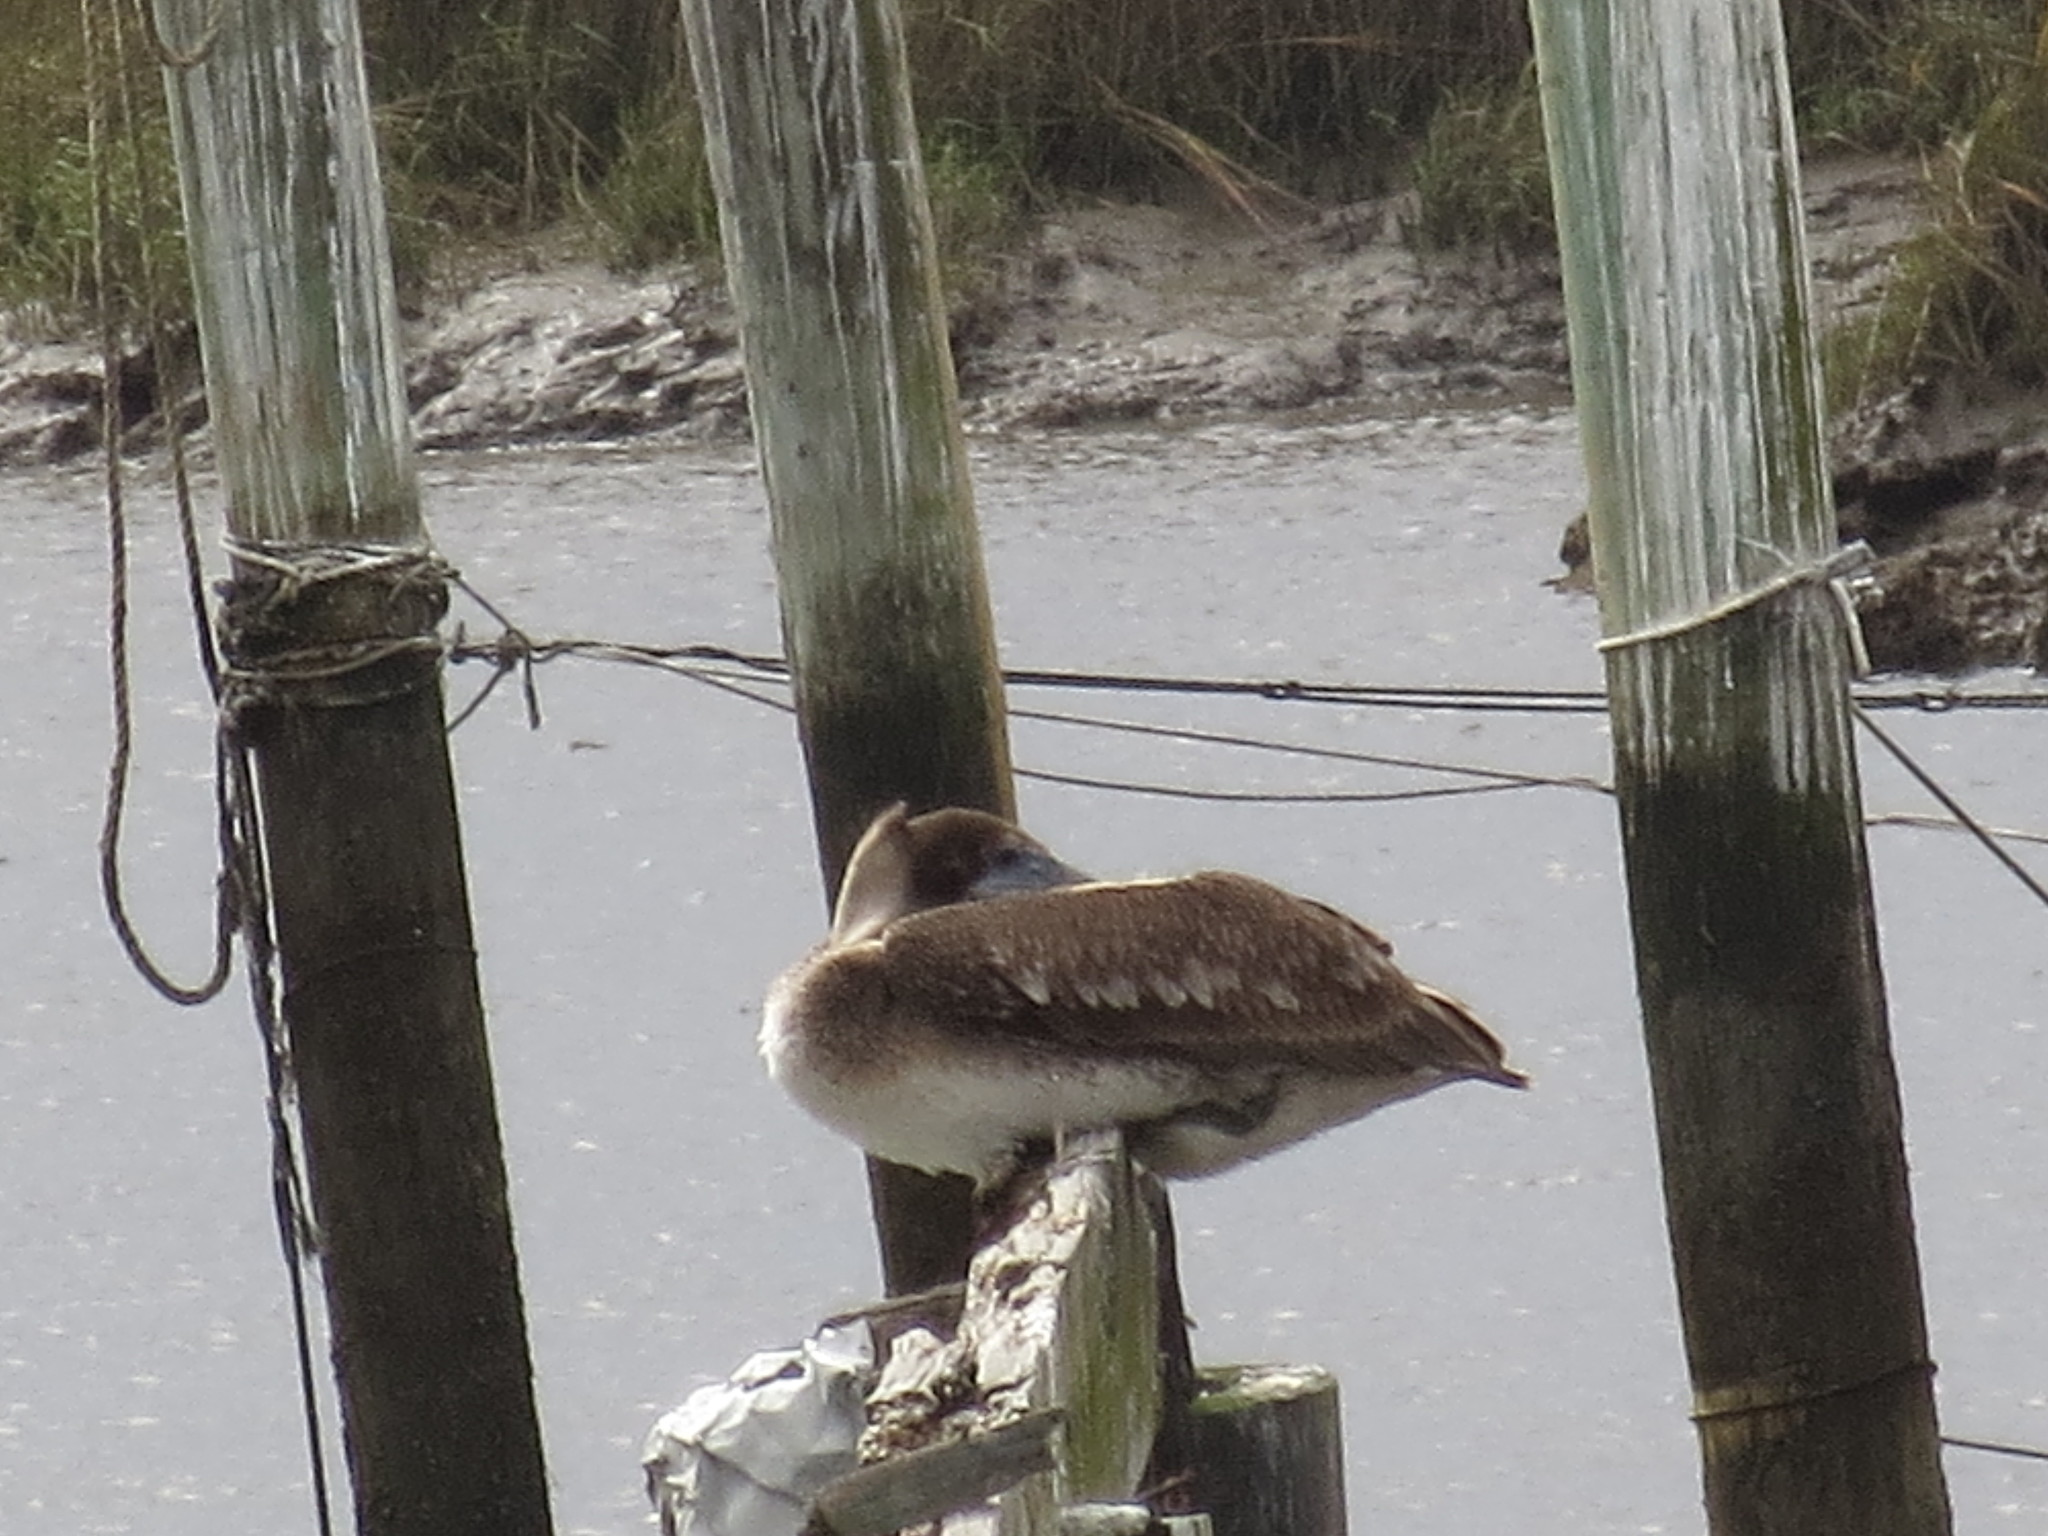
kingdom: Animalia
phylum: Chordata
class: Aves
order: Pelecaniformes
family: Pelecanidae
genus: Pelecanus
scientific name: Pelecanus occidentalis
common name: Brown pelican
